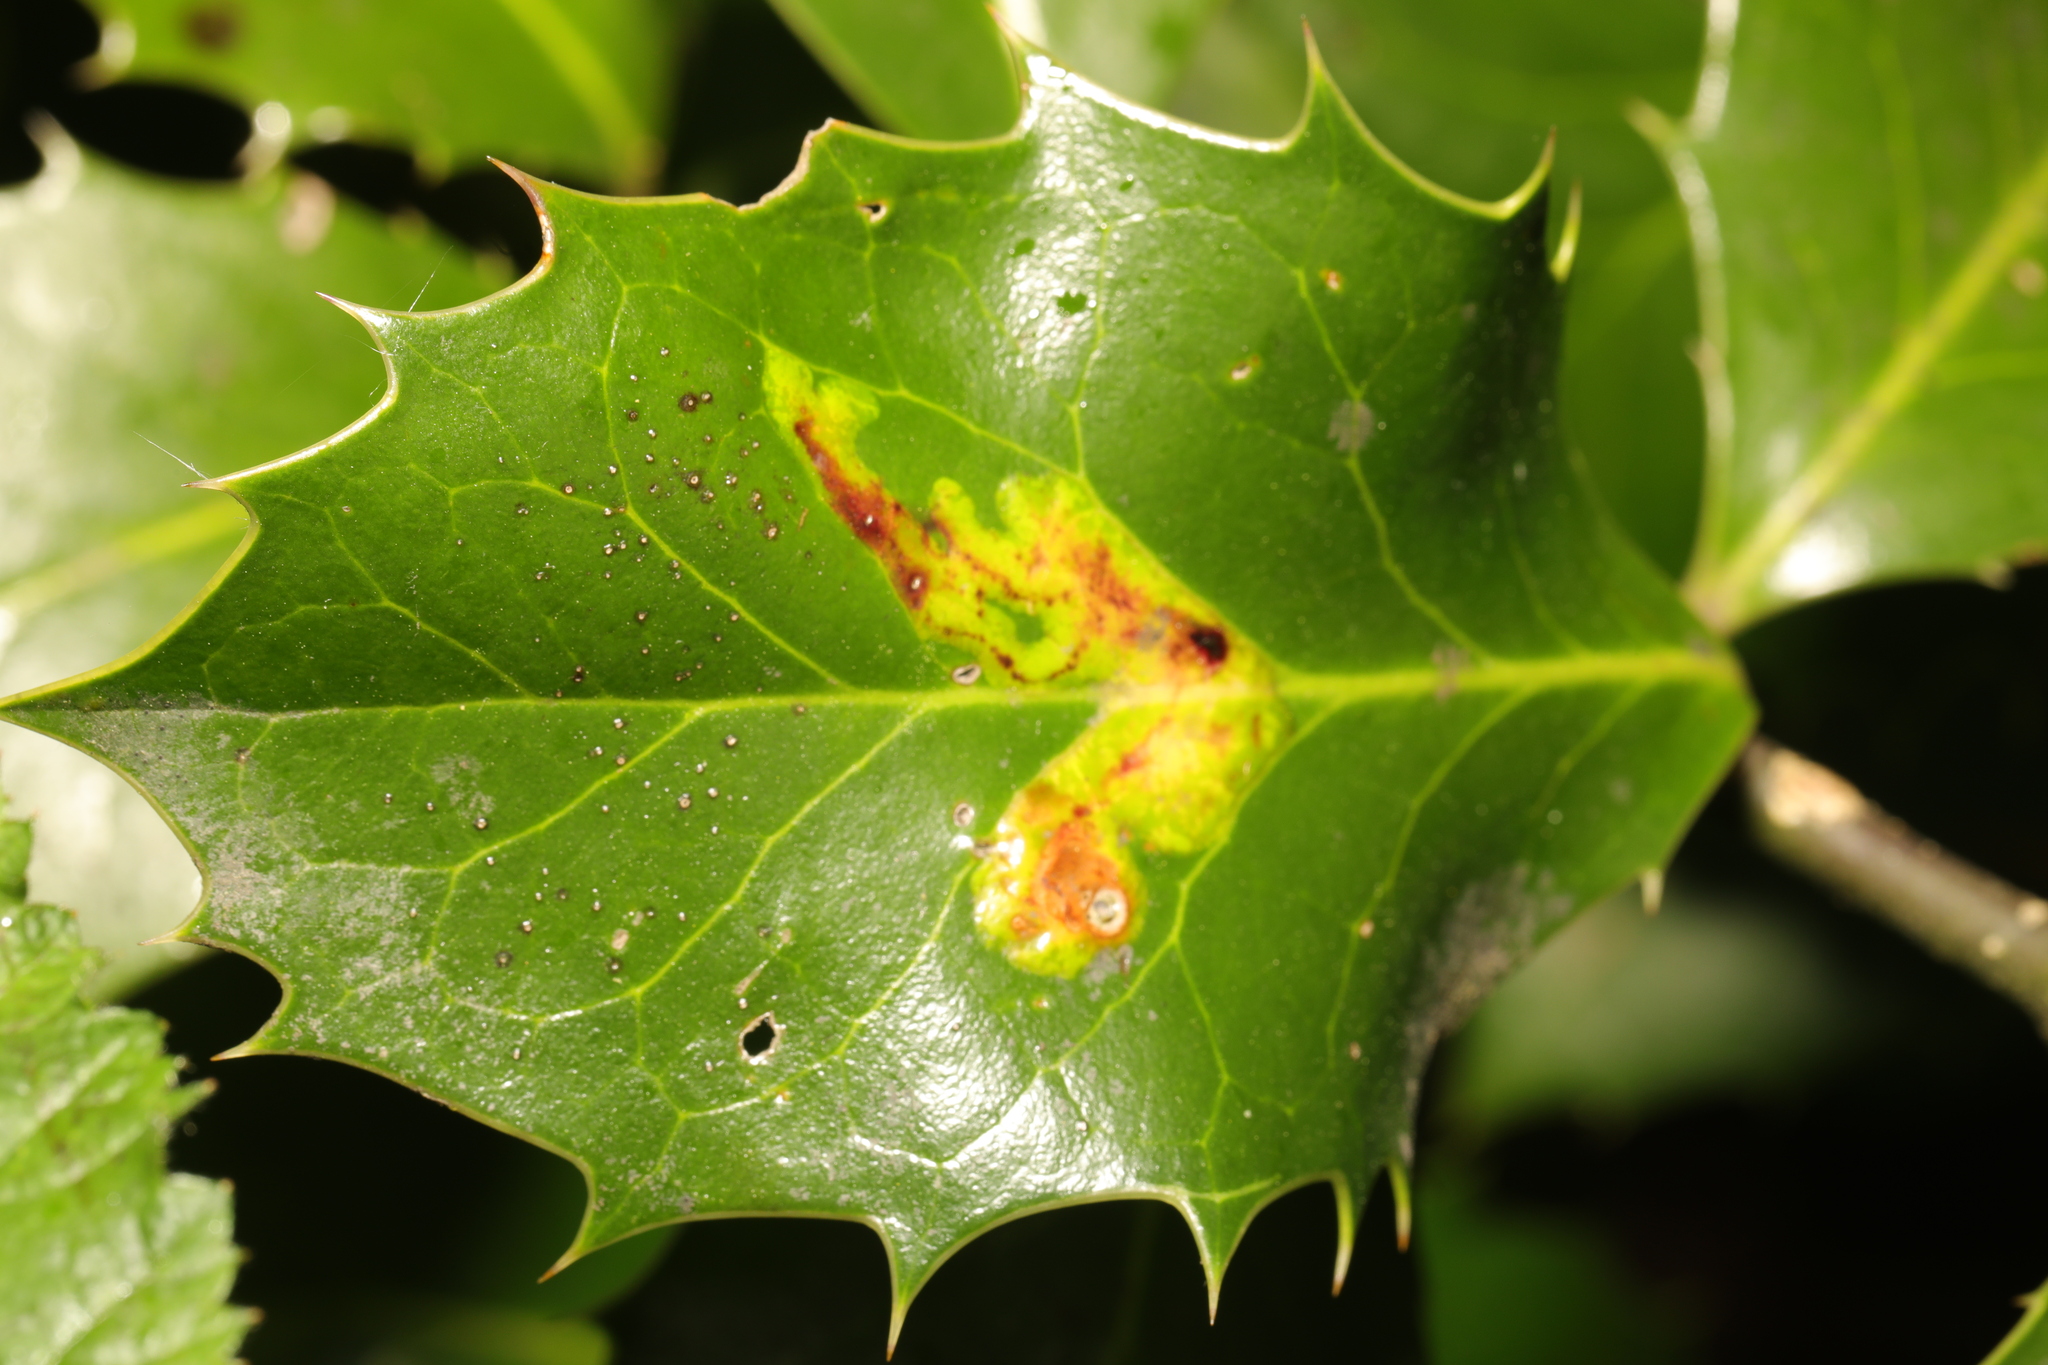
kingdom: Animalia
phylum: Arthropoda
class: Insecta
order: Diptera
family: Agromyzidae
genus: Phytomyza
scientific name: Phytomyza ilicis
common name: Holly leafminer
